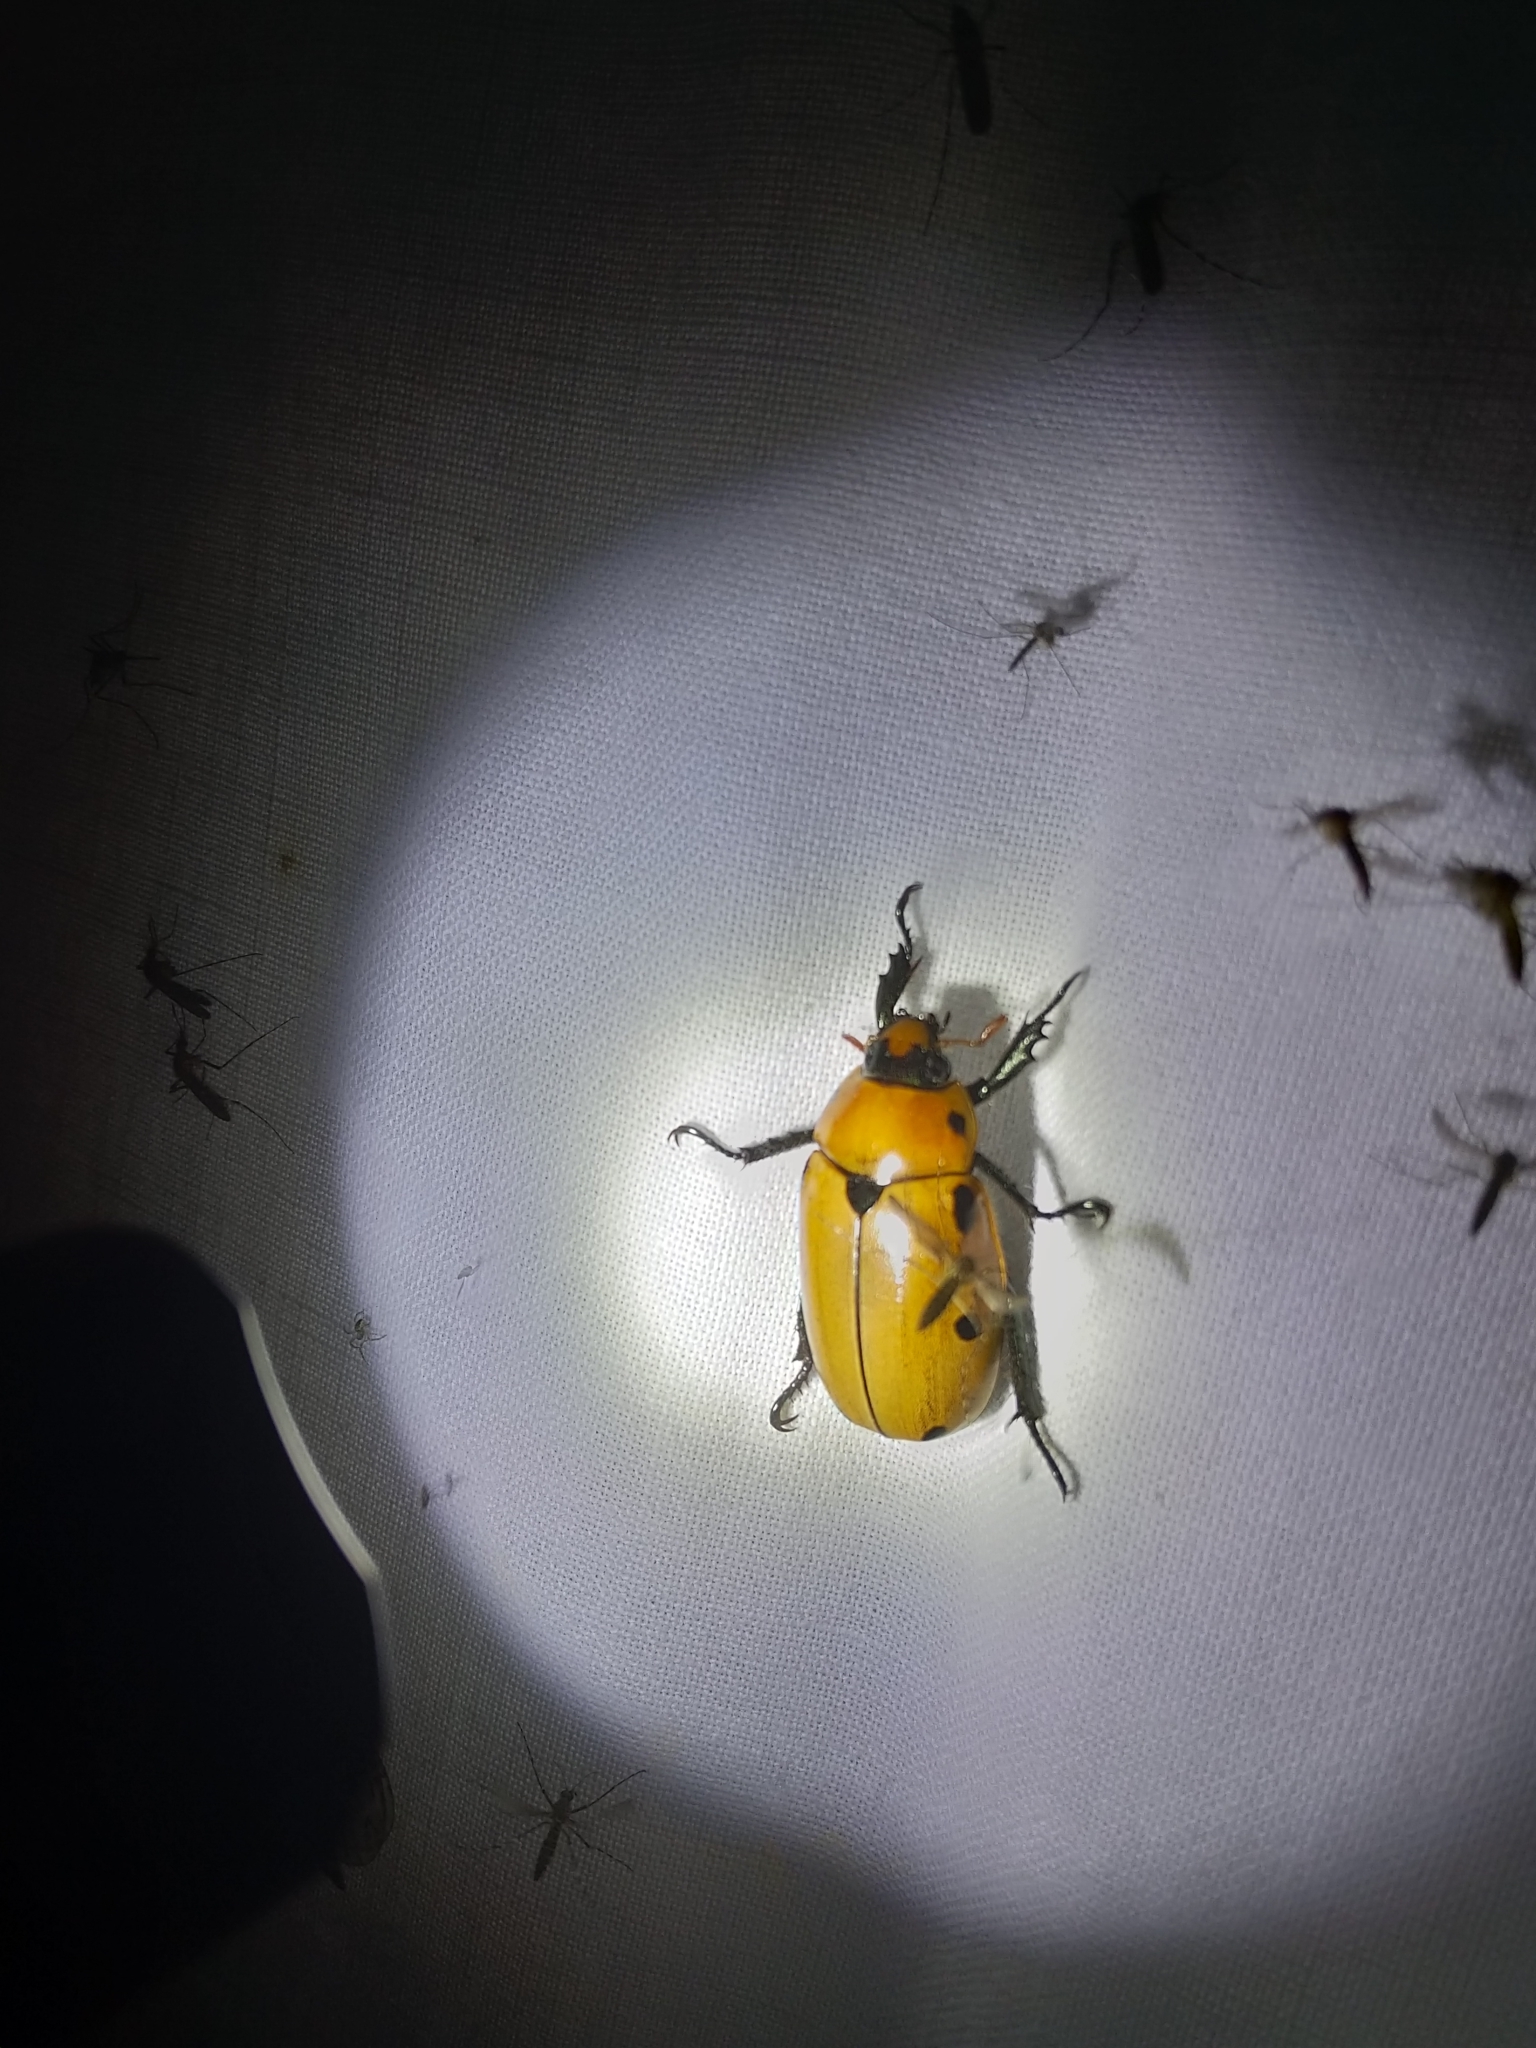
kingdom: Animalia
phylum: Arthropoda
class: Insecta
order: Coleoptera
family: Scarabaeidae
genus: Pelidnota
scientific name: Pelidnota punctata
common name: Grapevine beetle
